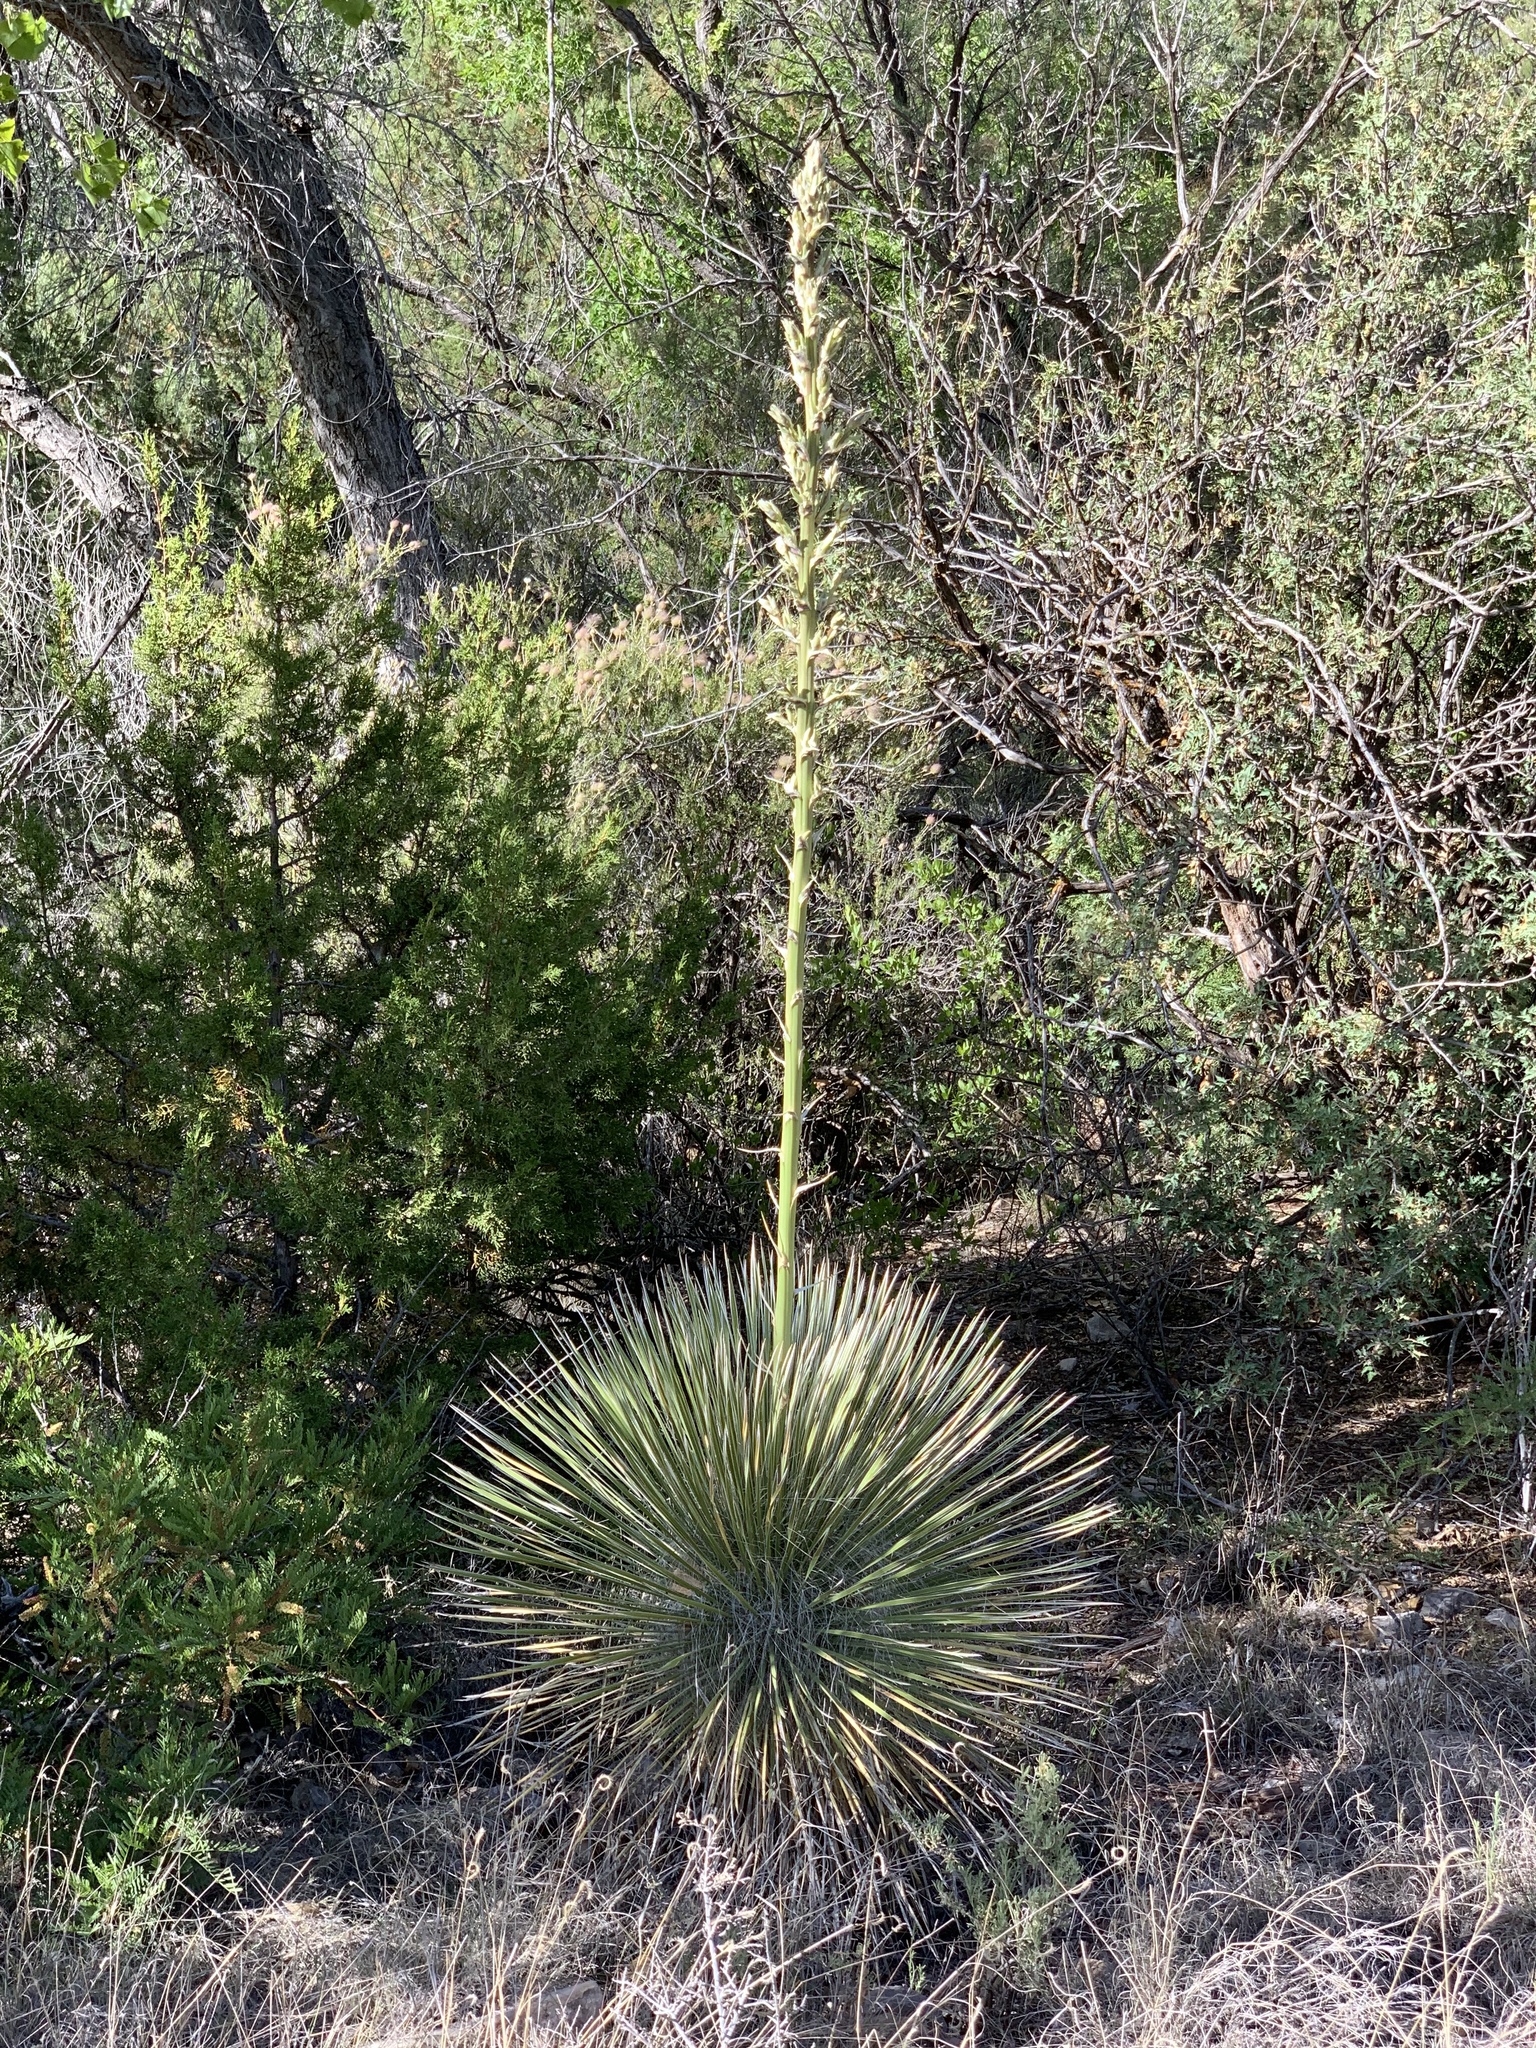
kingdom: Plantae
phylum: Tracheophyta
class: Liliopsida
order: Asparagales
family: Asparagaceae
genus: Yucca
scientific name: Yucca elata
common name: Palmella
